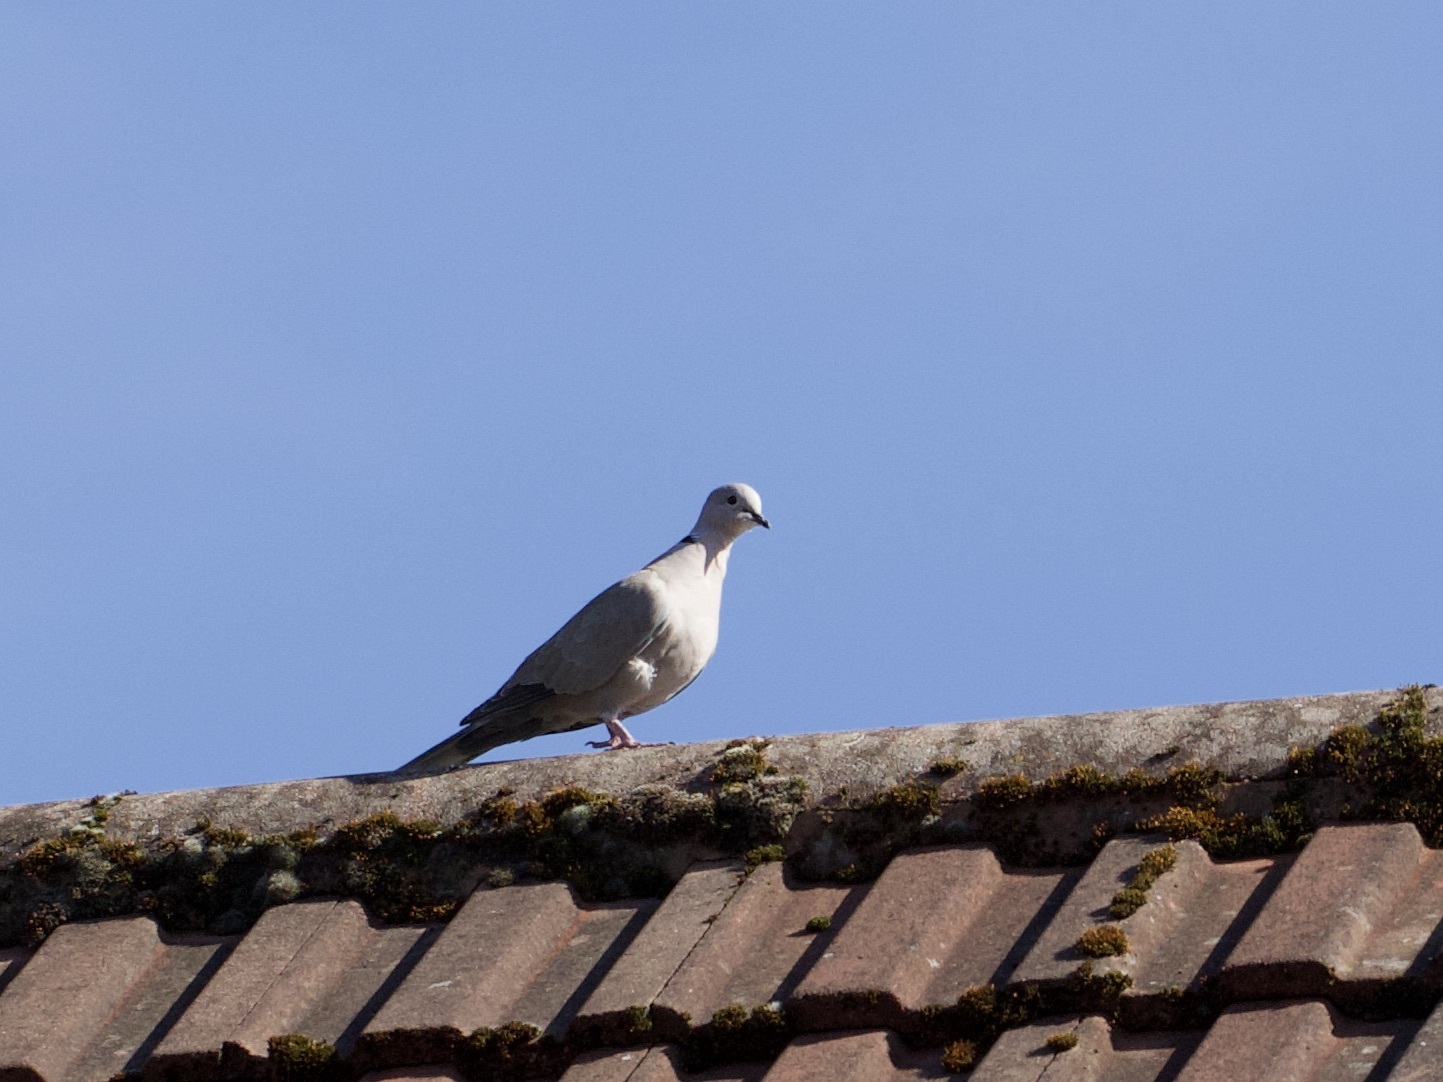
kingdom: Animalia
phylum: Chordata
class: Aves
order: Columbiformes
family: Columbidae
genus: Streptopelia
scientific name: Streptopelia decaocto
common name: Eurasian collared dove
